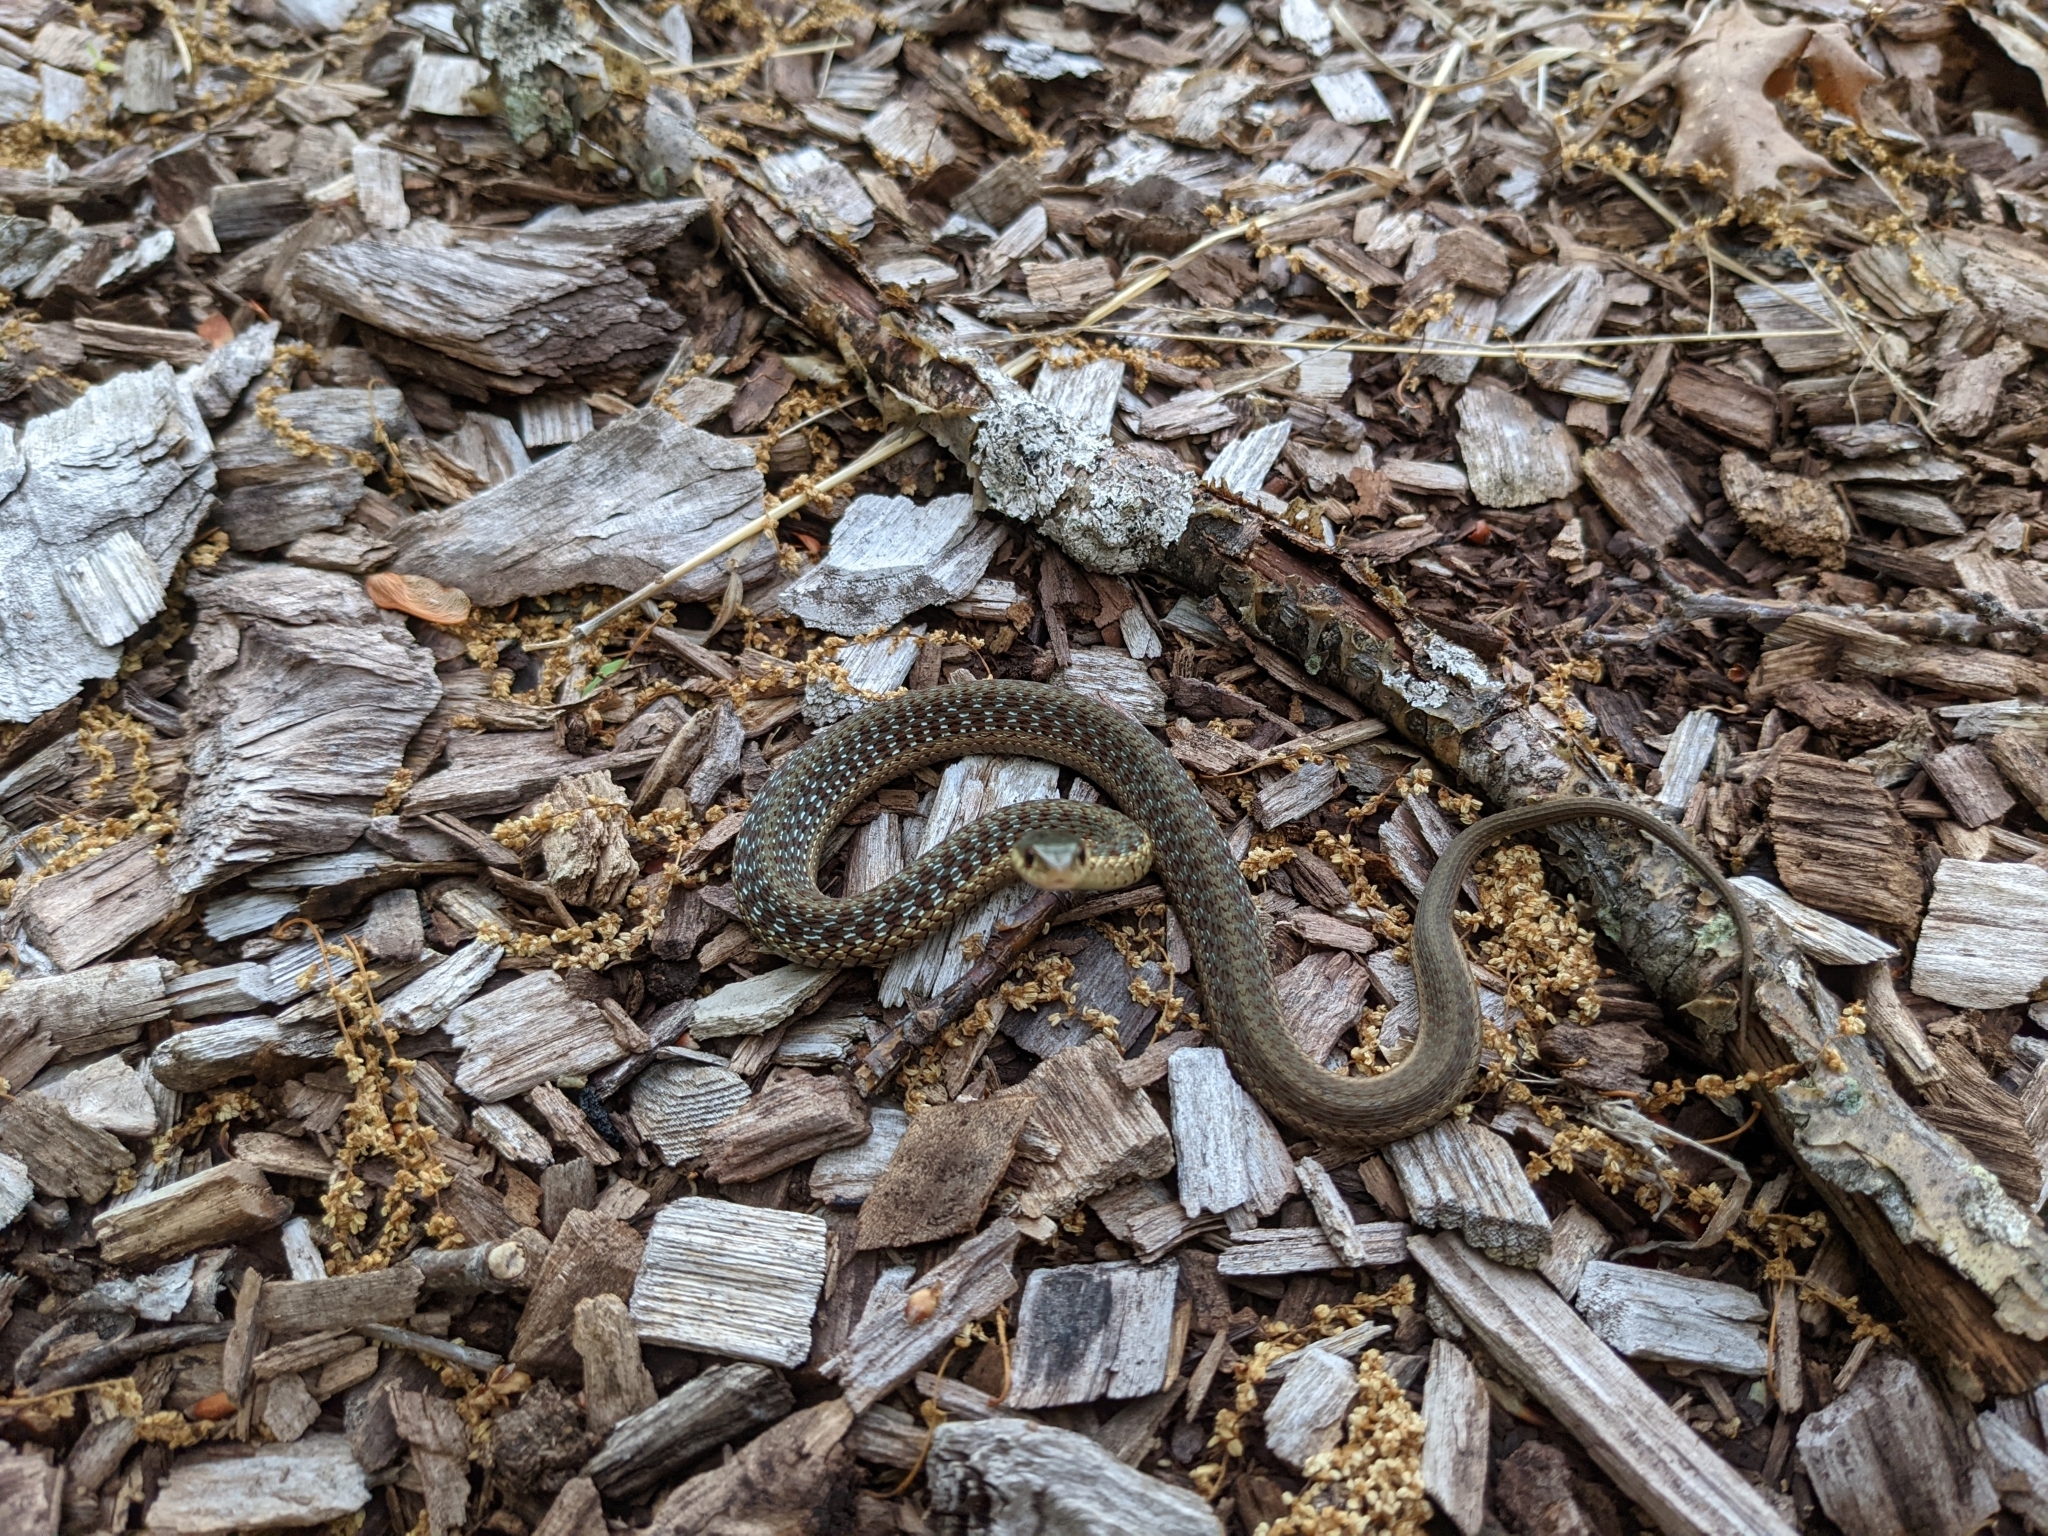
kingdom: Animalia
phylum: Chordata
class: Squamata
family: Colubridae
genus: Thamnophis
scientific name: Thamnophis sirtalis
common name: Common garter snake
